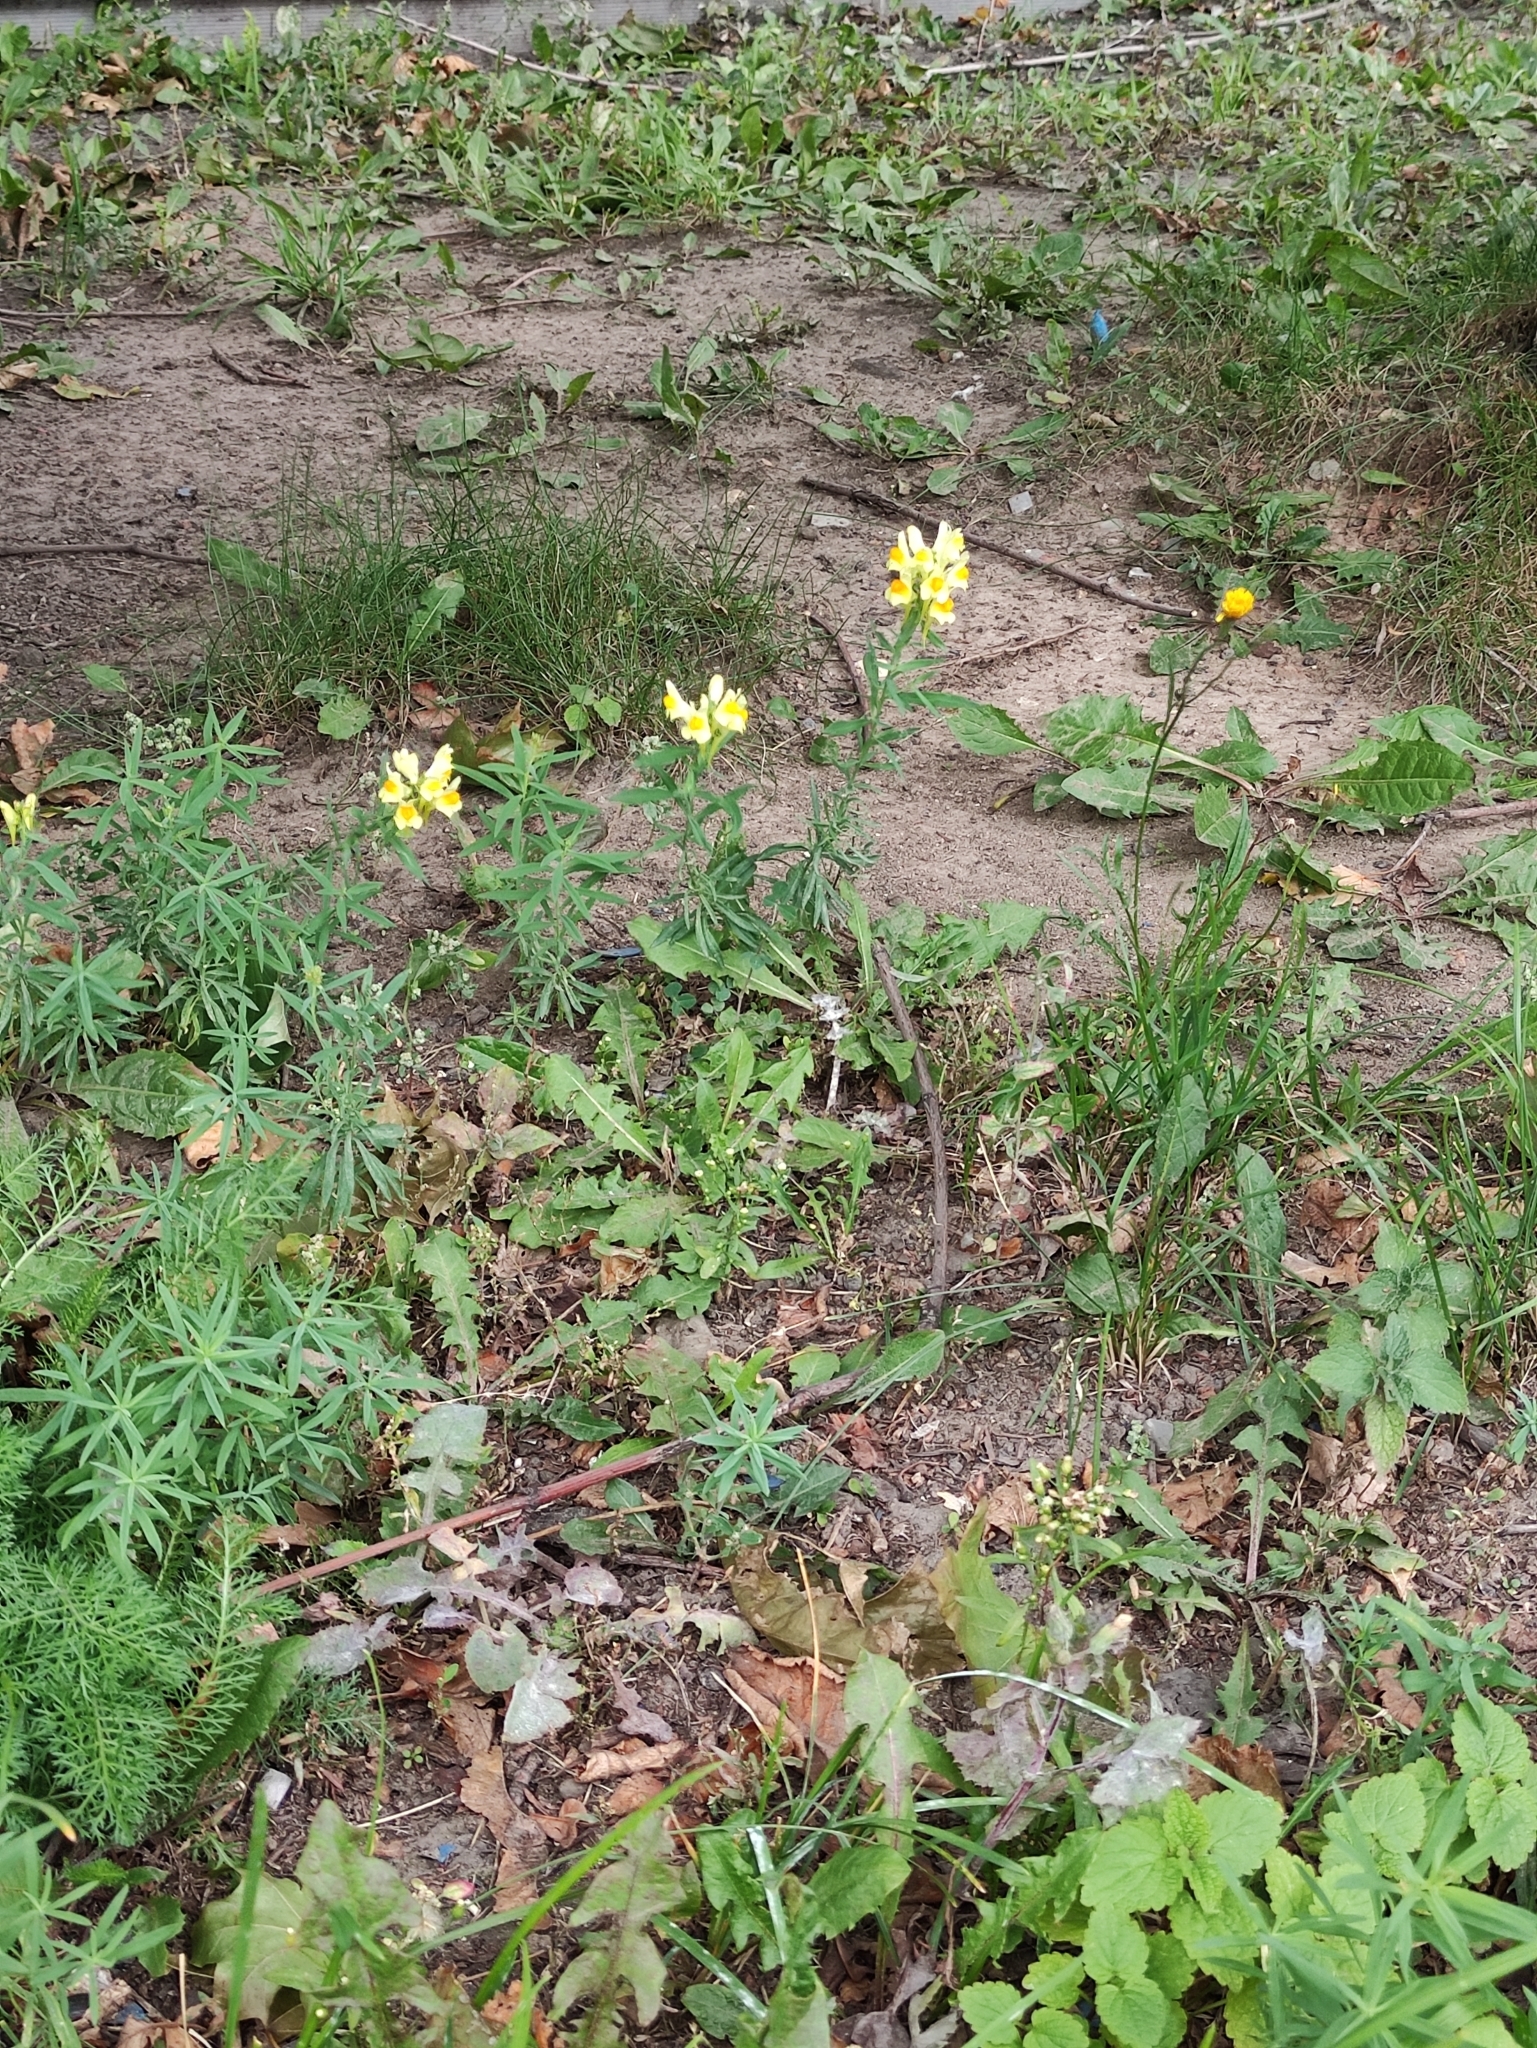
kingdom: Plantae
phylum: Tracheophyta
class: Magnoliopsida
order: Lamiales
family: Plantaginaceae
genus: Linaria
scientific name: Linaria vulgaris
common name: Butter and eggs
